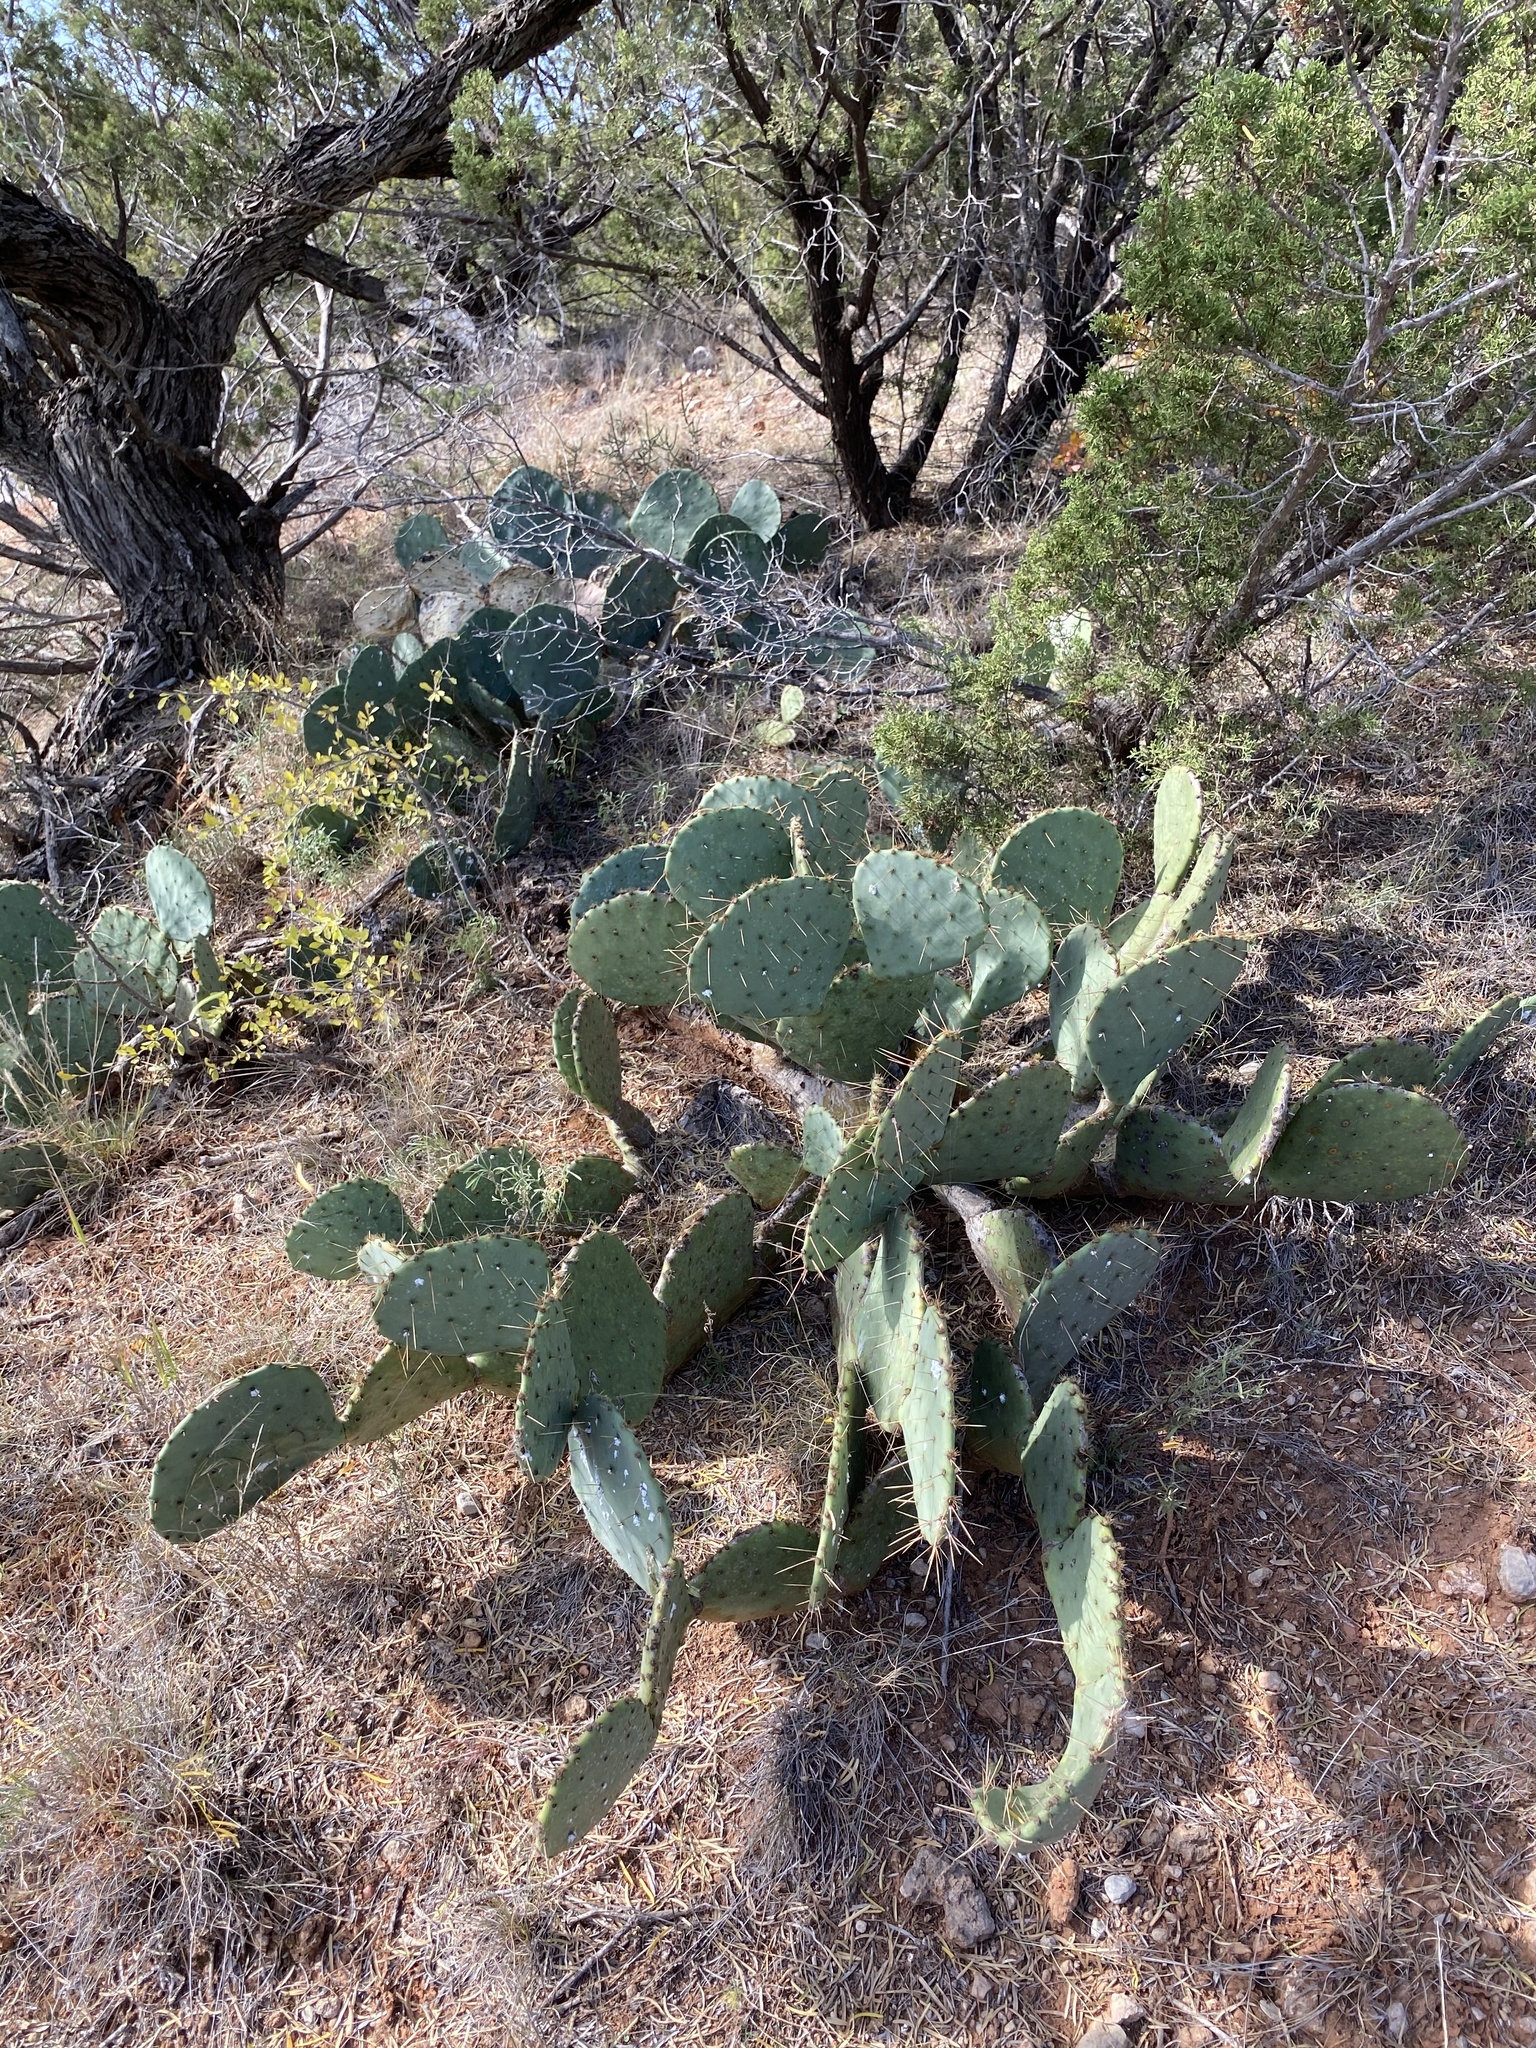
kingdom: Plantae
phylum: Tracheophyta
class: Magnoliopsida
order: Caryophyllales
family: Cactaceae
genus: Opuntia
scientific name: Opuntia engelmannii
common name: Cactus-apple
